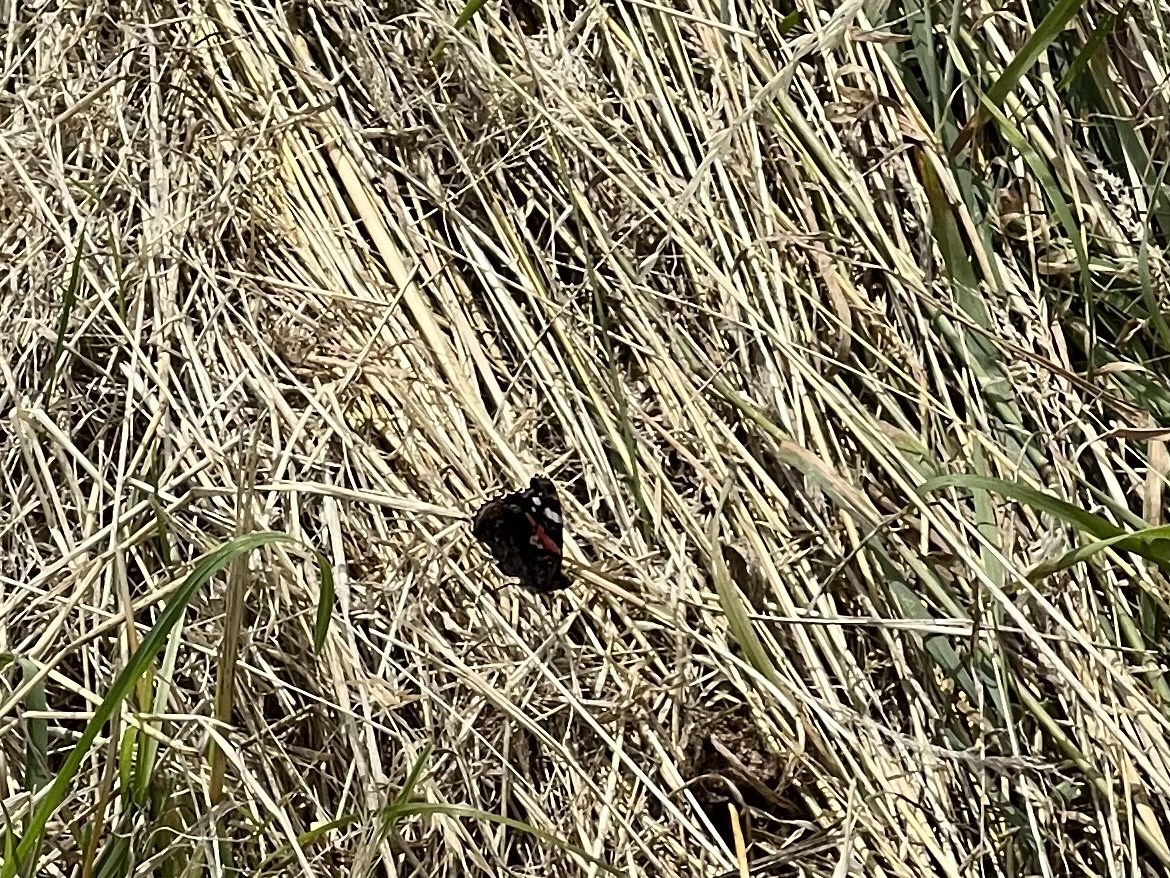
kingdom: Animalia
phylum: Arthropoda
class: Insecta
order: Lepidoptera
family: Nymphalidae
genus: Vanessa
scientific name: Vanessa atalanta
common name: Red admiral
